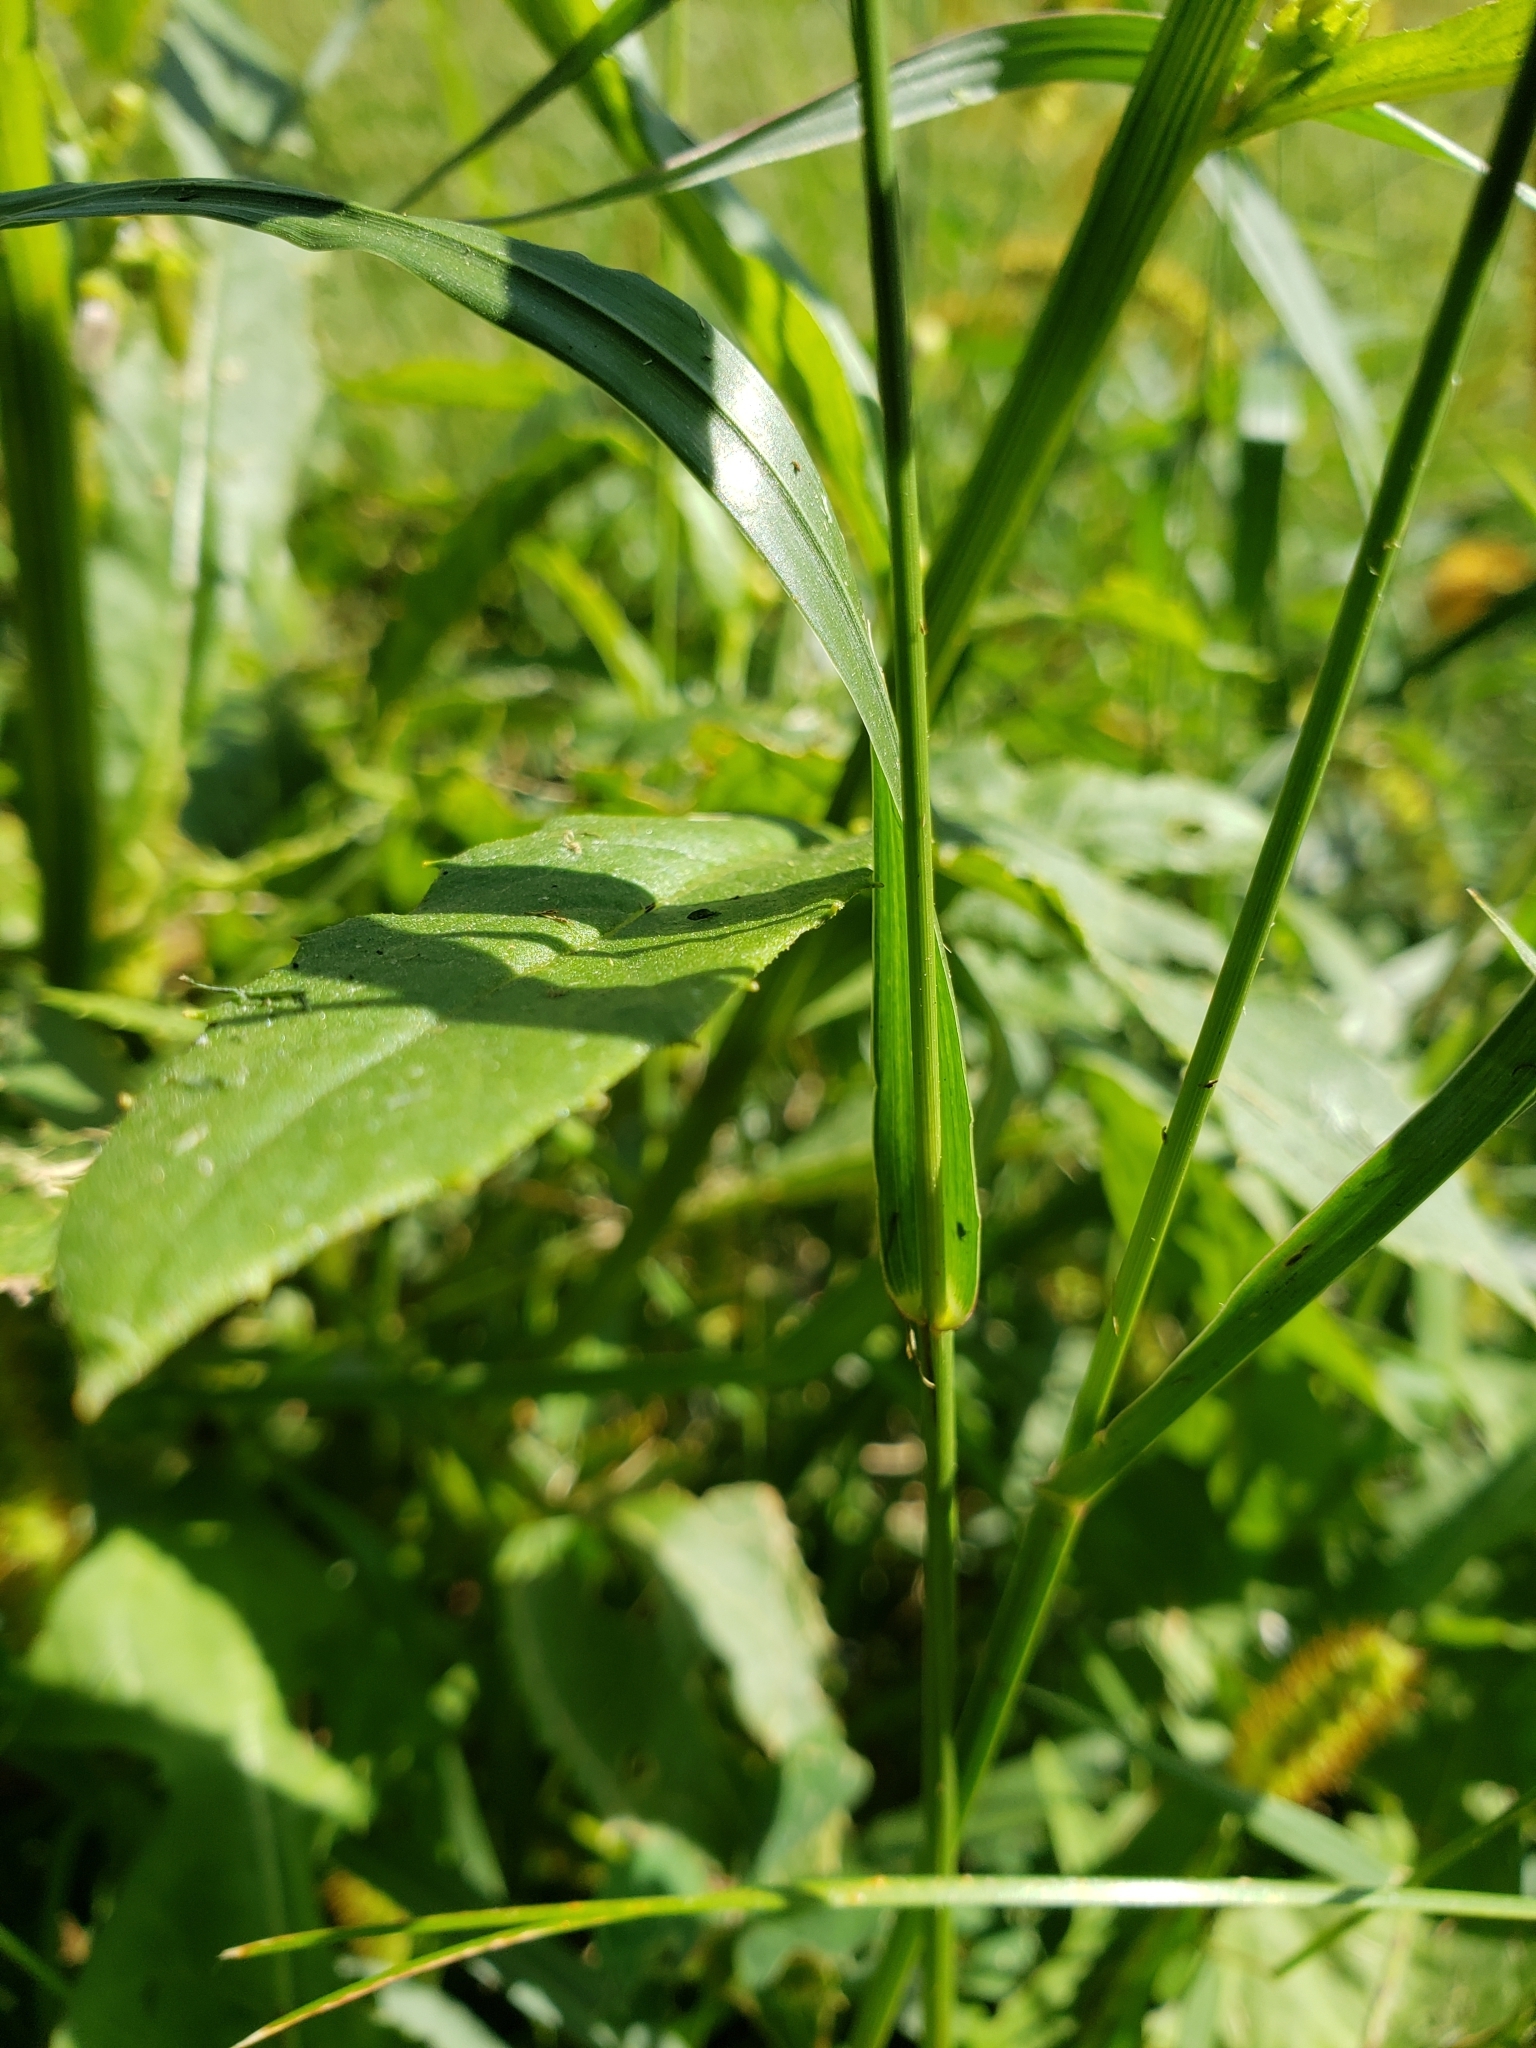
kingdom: Plantae
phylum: Tracheophyta
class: Liliopsida
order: Poales
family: Poaceae
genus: Setaria
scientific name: Setaria pumila
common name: Yellow bristle-grass
